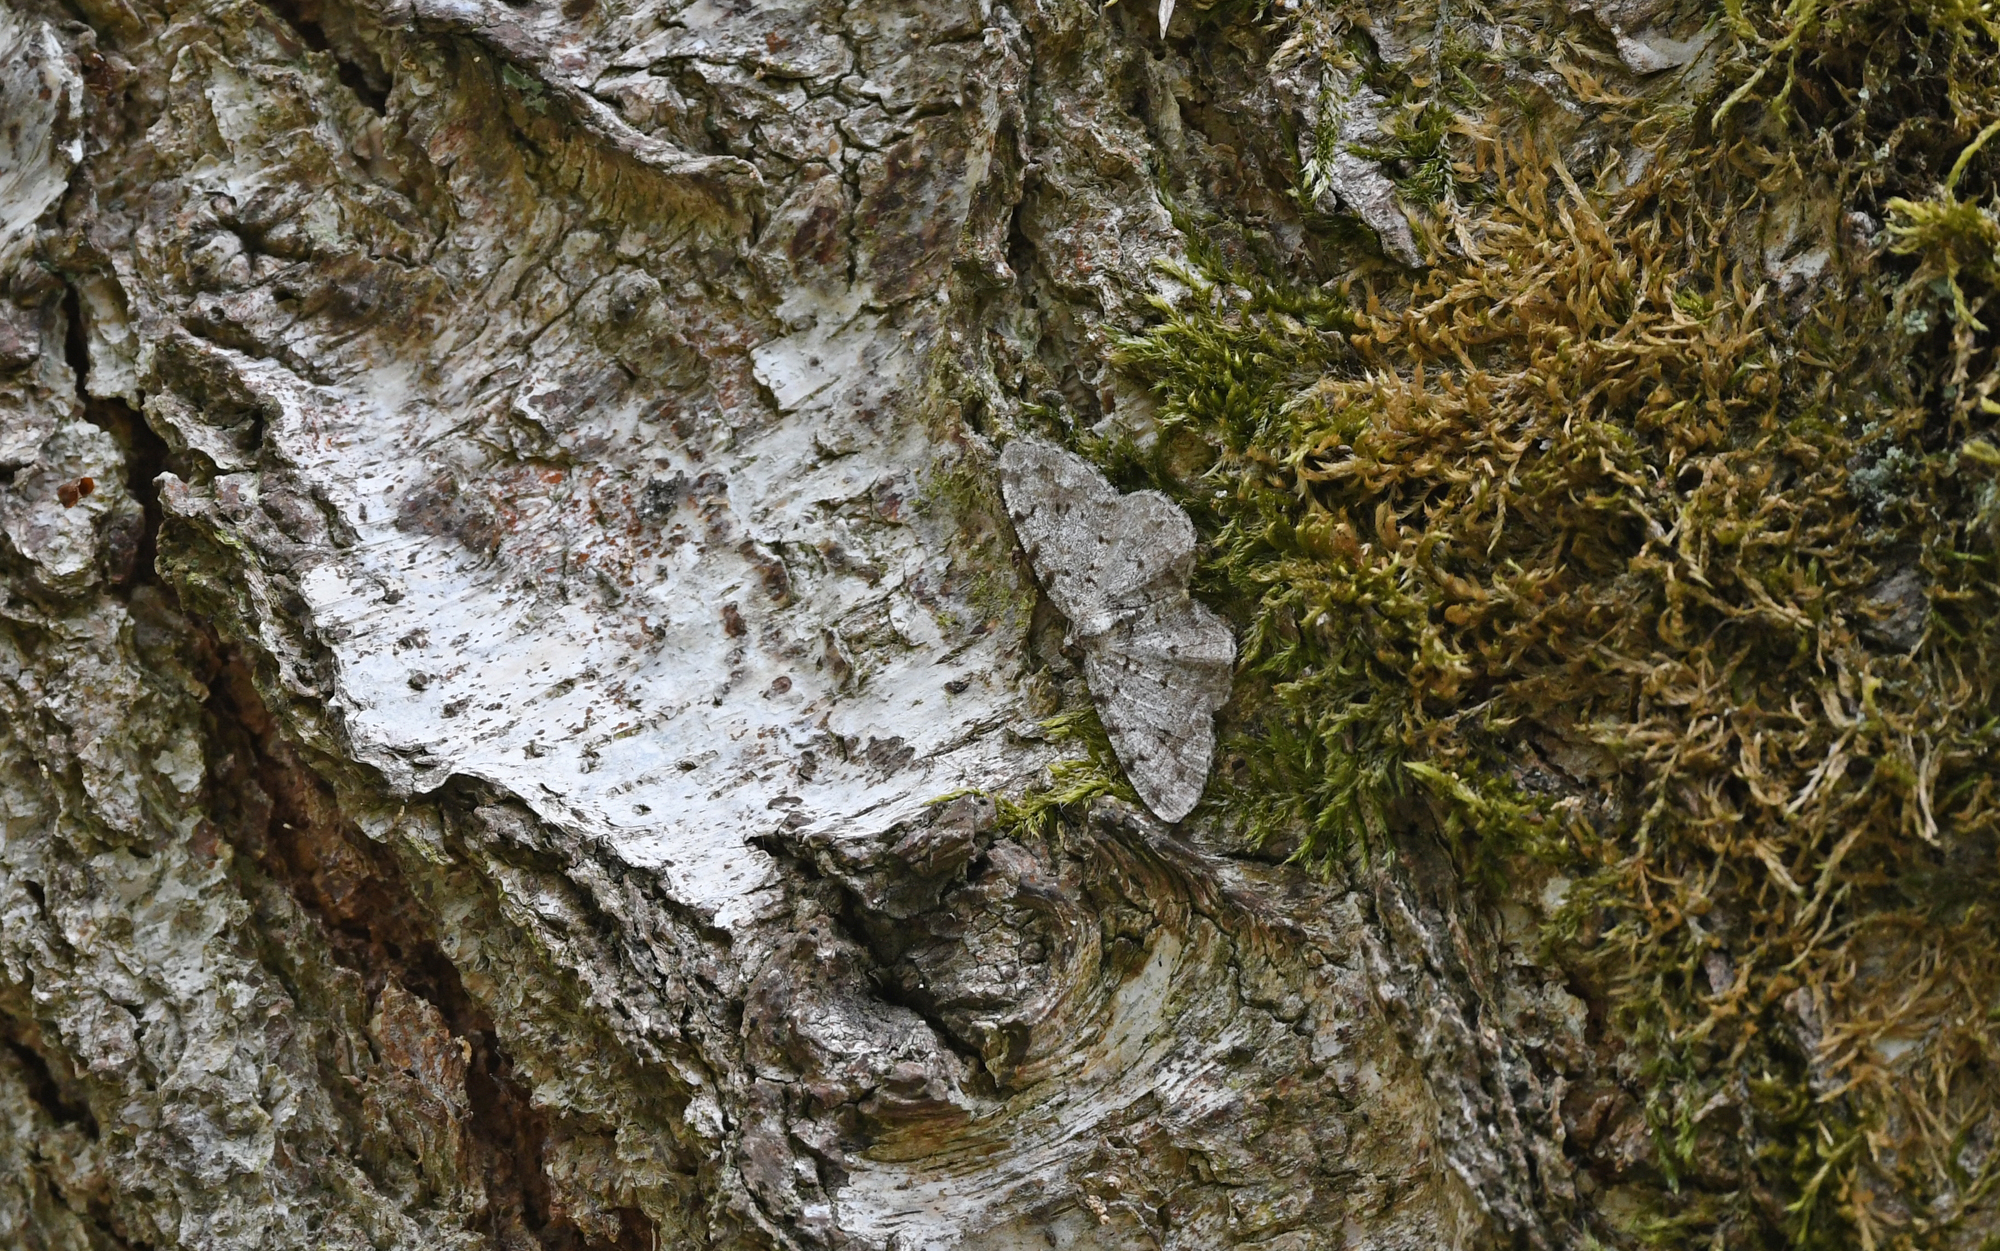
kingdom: Animalia
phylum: Arthropoda
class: Insecta
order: Lepidoptera
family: Geometridae
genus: Aethalura
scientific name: Aethalura punctulata
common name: Grey birch
